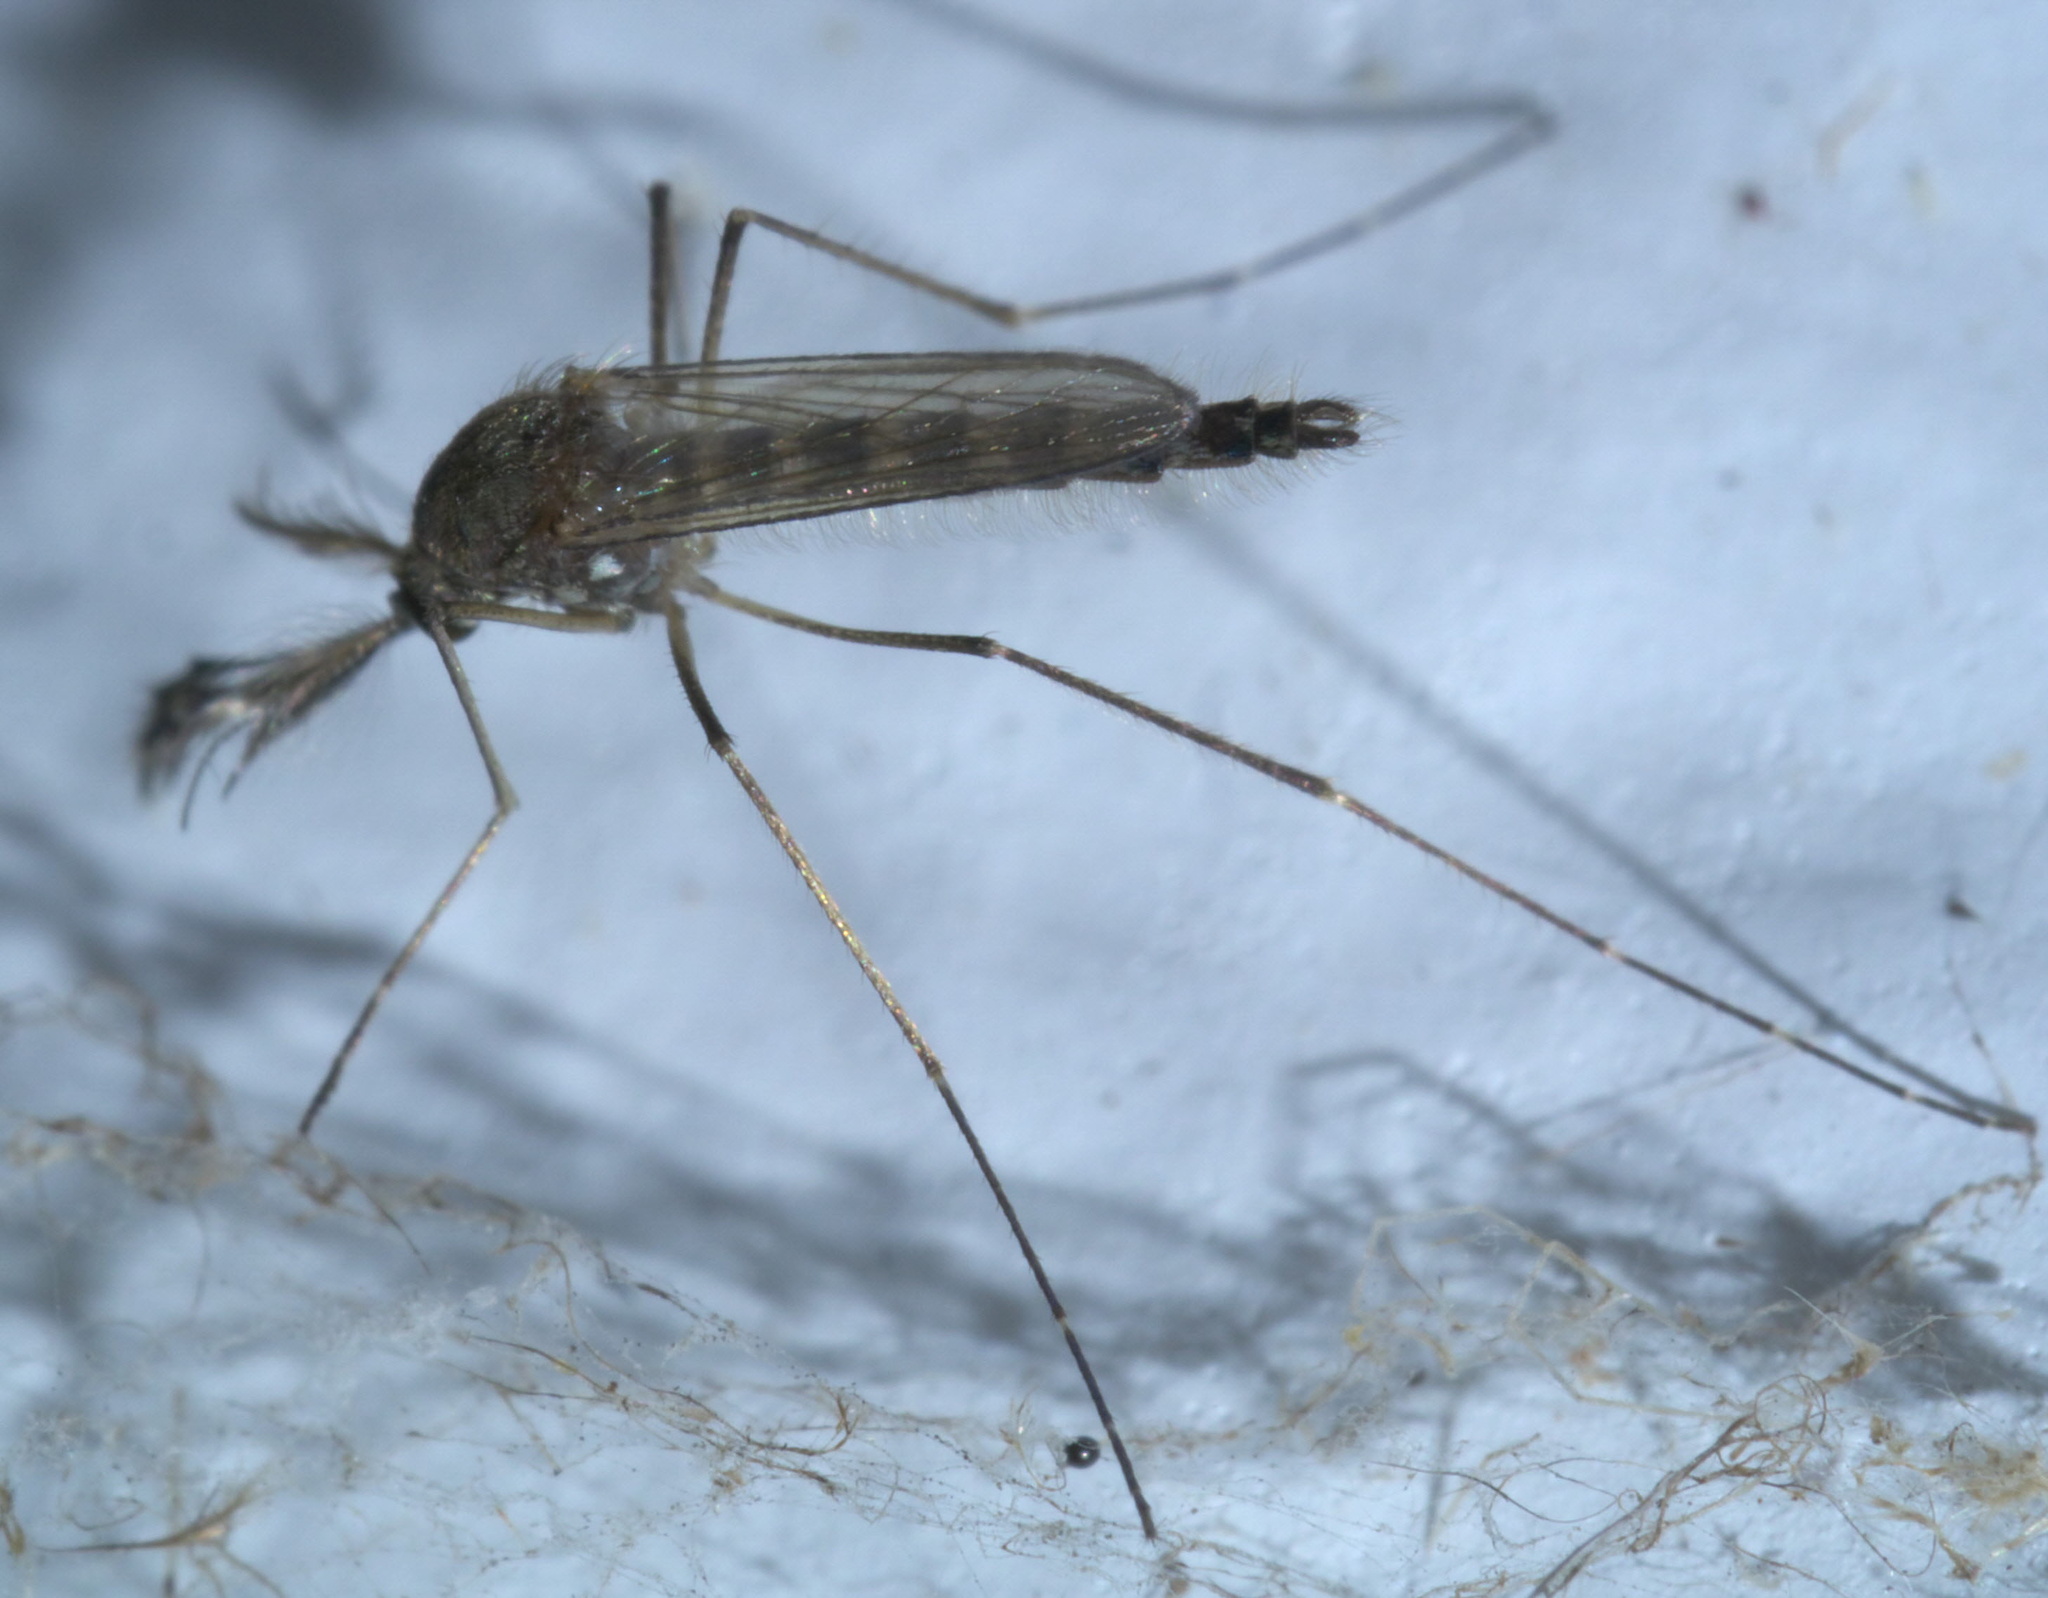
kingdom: Animalia
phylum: Arthropoda
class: Insecta
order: Diptera
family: Culicidae
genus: Aedes
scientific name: Aedes vexans
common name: Inland floodwater mosquito
